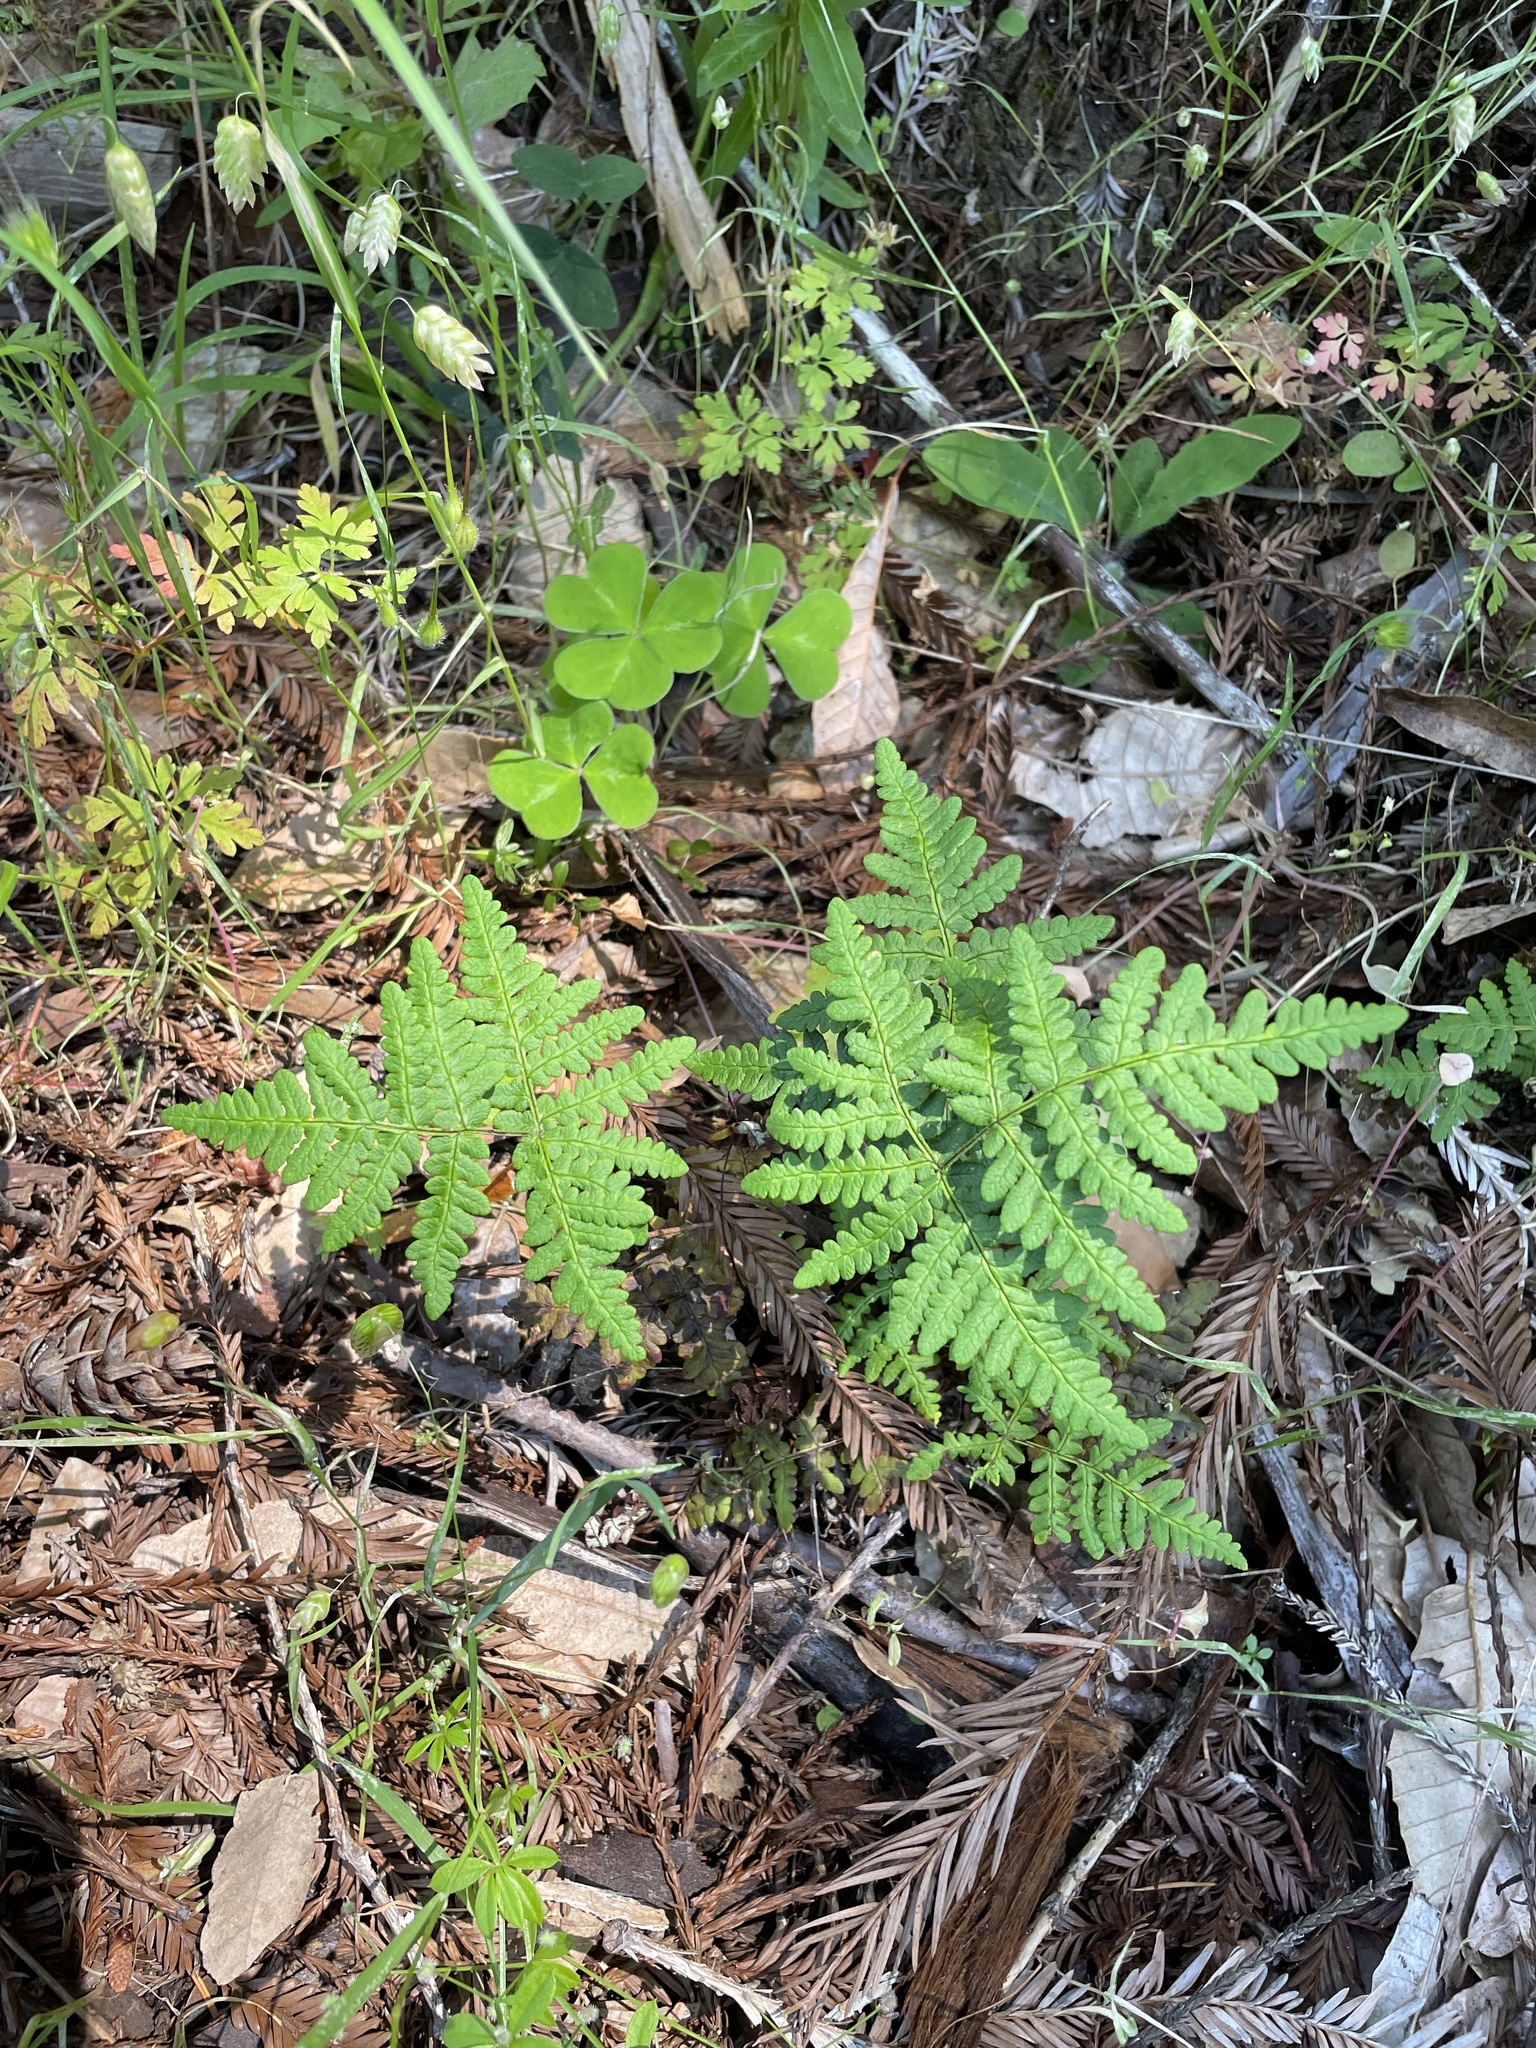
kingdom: Plantae
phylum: Tracheophyta
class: Polypodiopsida
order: Polypodiales
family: Pteridaceae
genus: Pentagramma
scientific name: Pentagramma triangularis
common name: Gold fern
